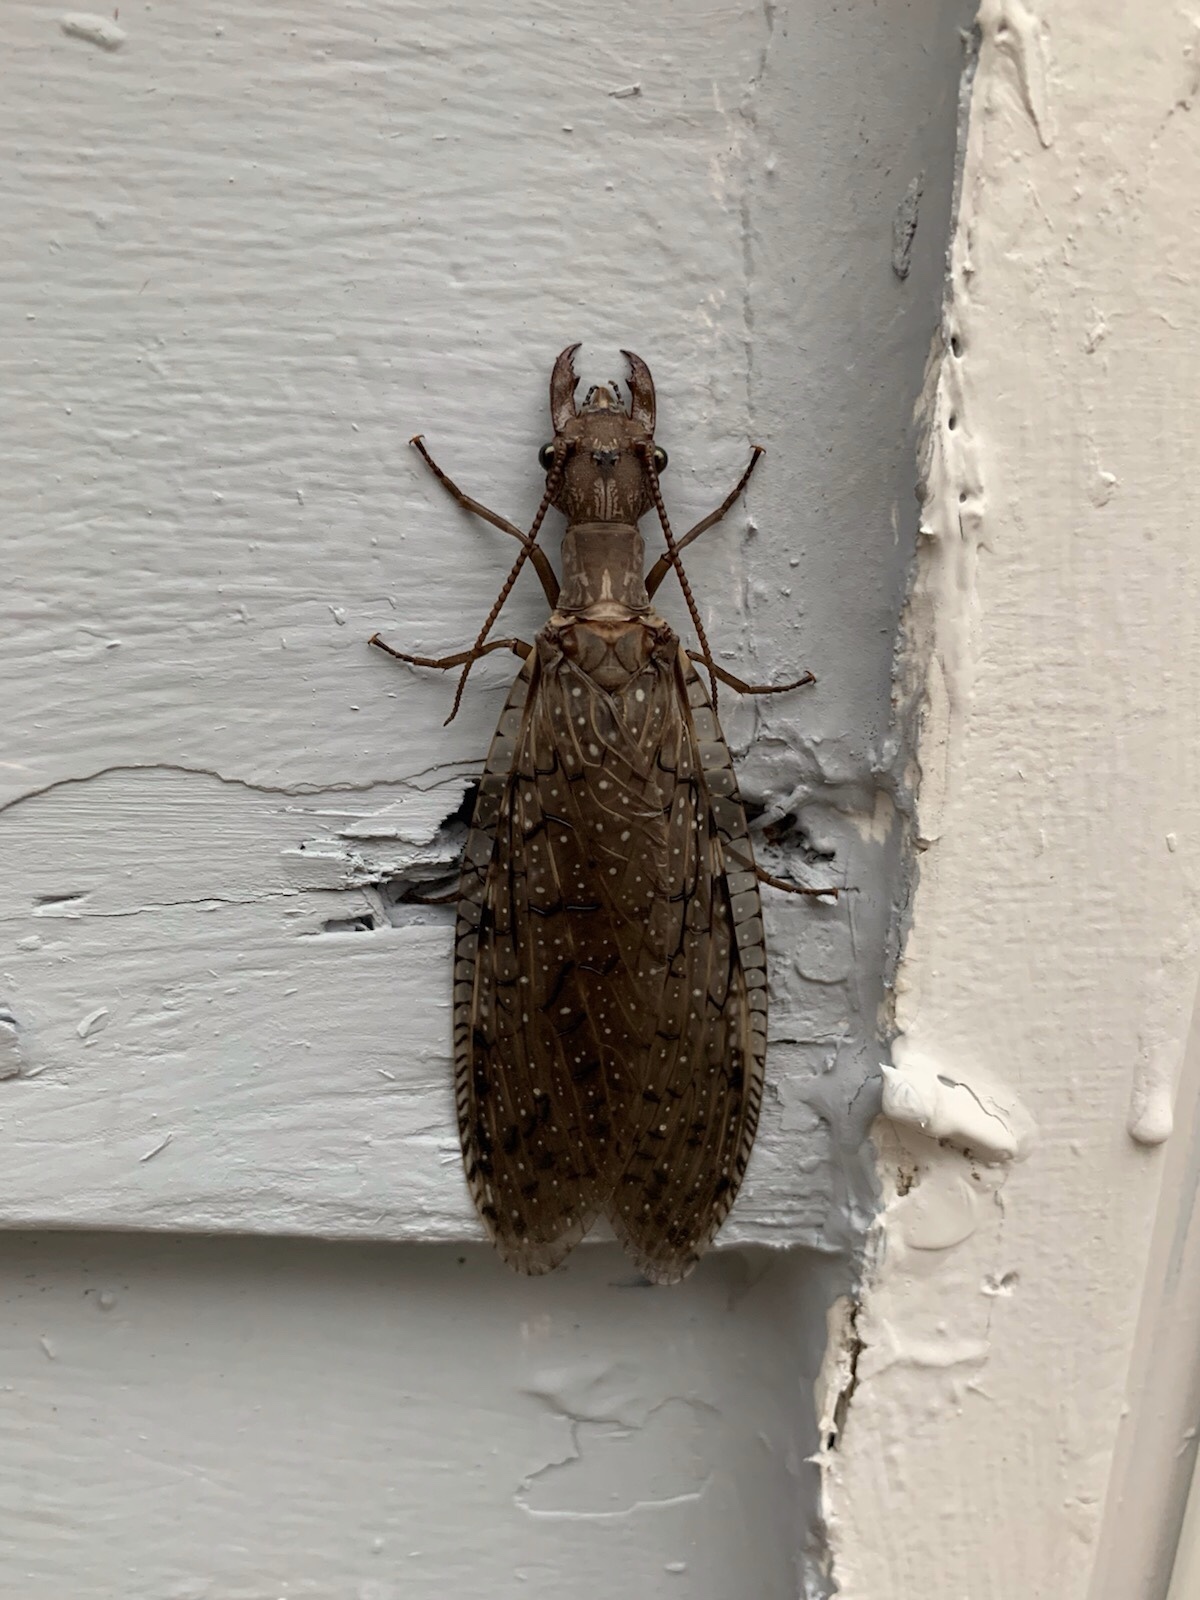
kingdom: Animalia
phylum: Arthropoda
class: Insecta
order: Megaloptera
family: Corydalidae
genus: Corydalus
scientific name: Corydalus cornutus
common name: Dobsonfly
